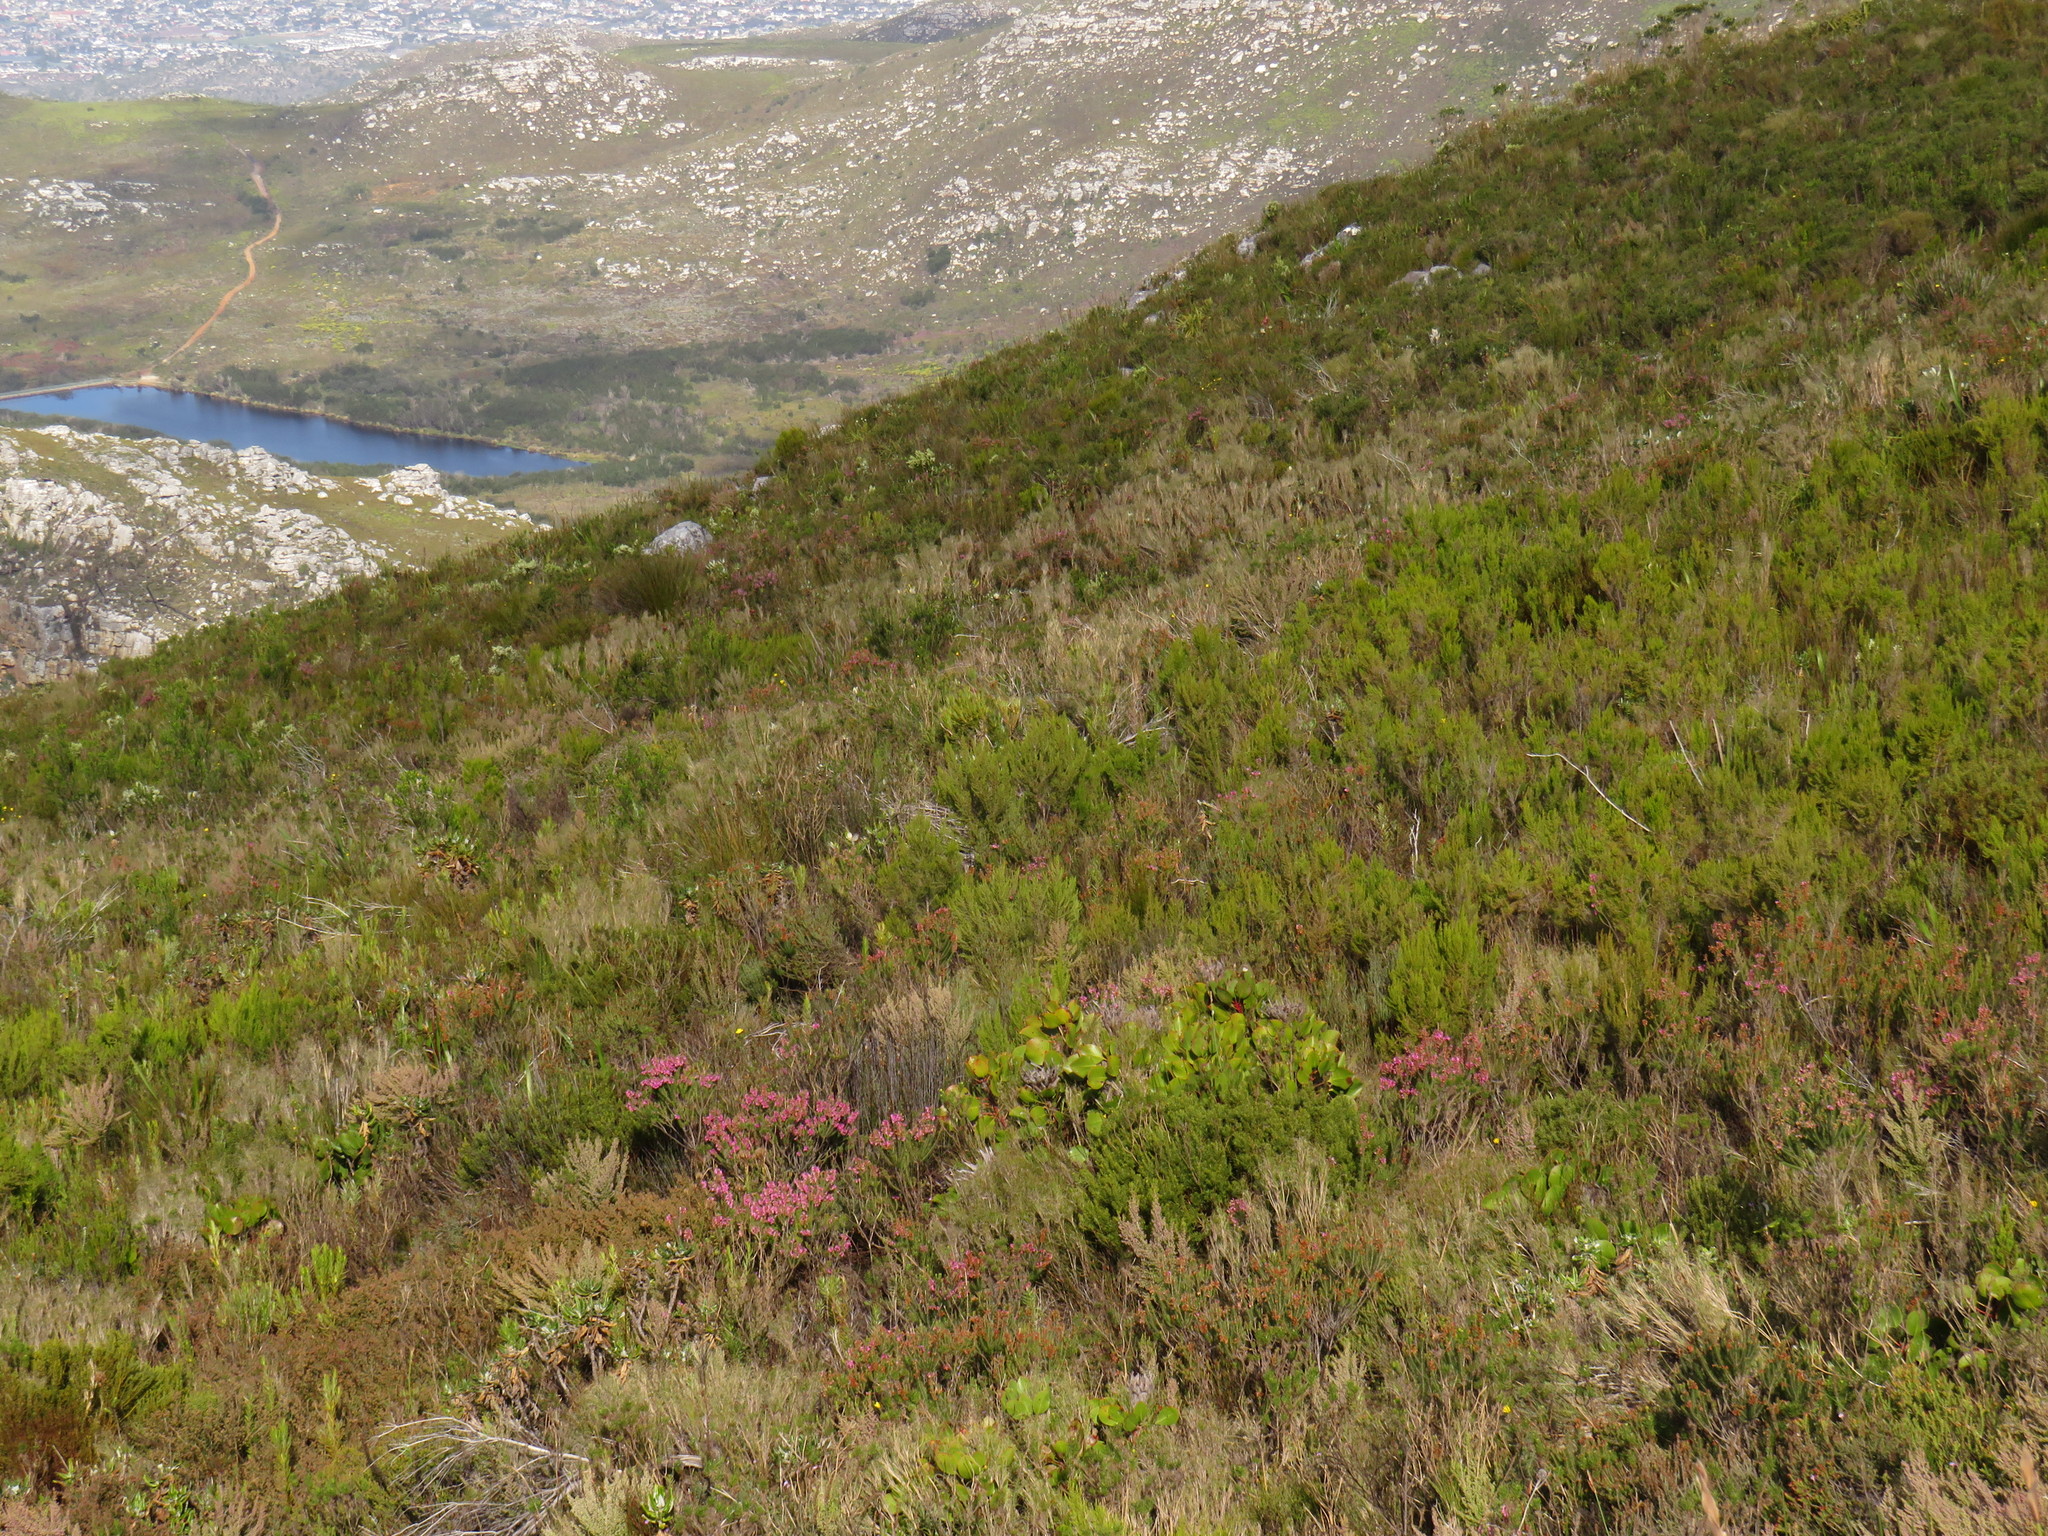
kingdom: Plantae
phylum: Tracheophyta
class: Magnoliopsida
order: Ericales
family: Ericaceae
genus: Erica
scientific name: Erica abietina
